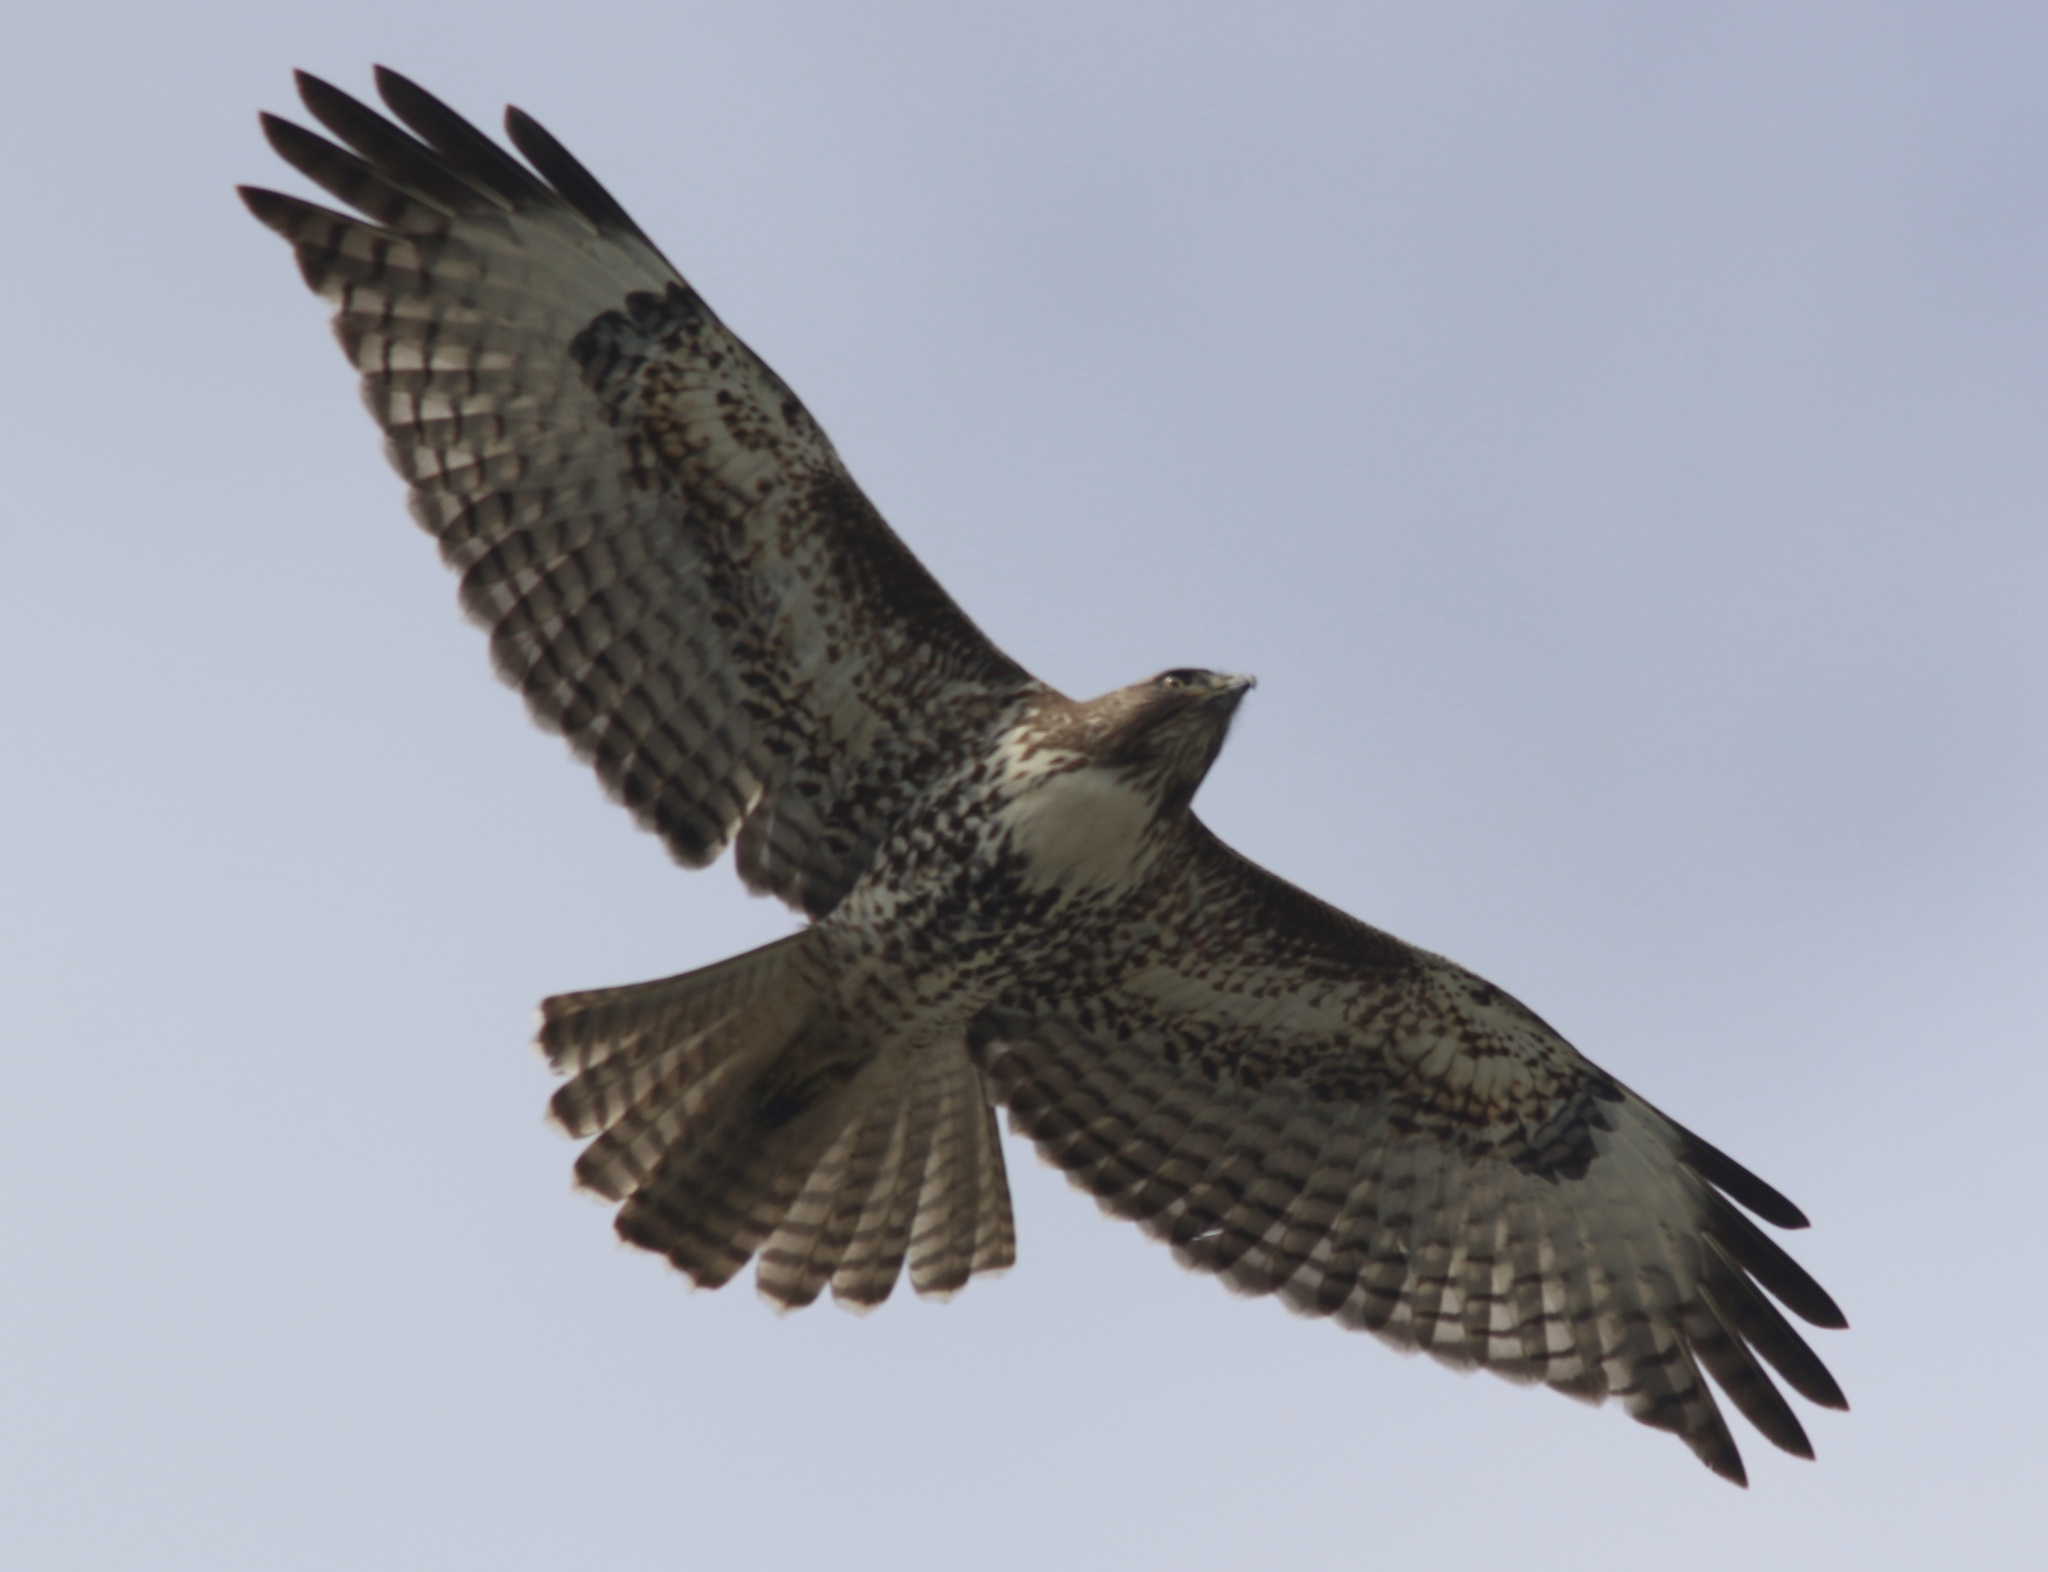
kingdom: Animalia
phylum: Chordata
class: Aves
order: Accipitriformes
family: Accipitridae
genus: Buteo
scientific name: Buteo jamaicensis
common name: Red-tailed hawk
